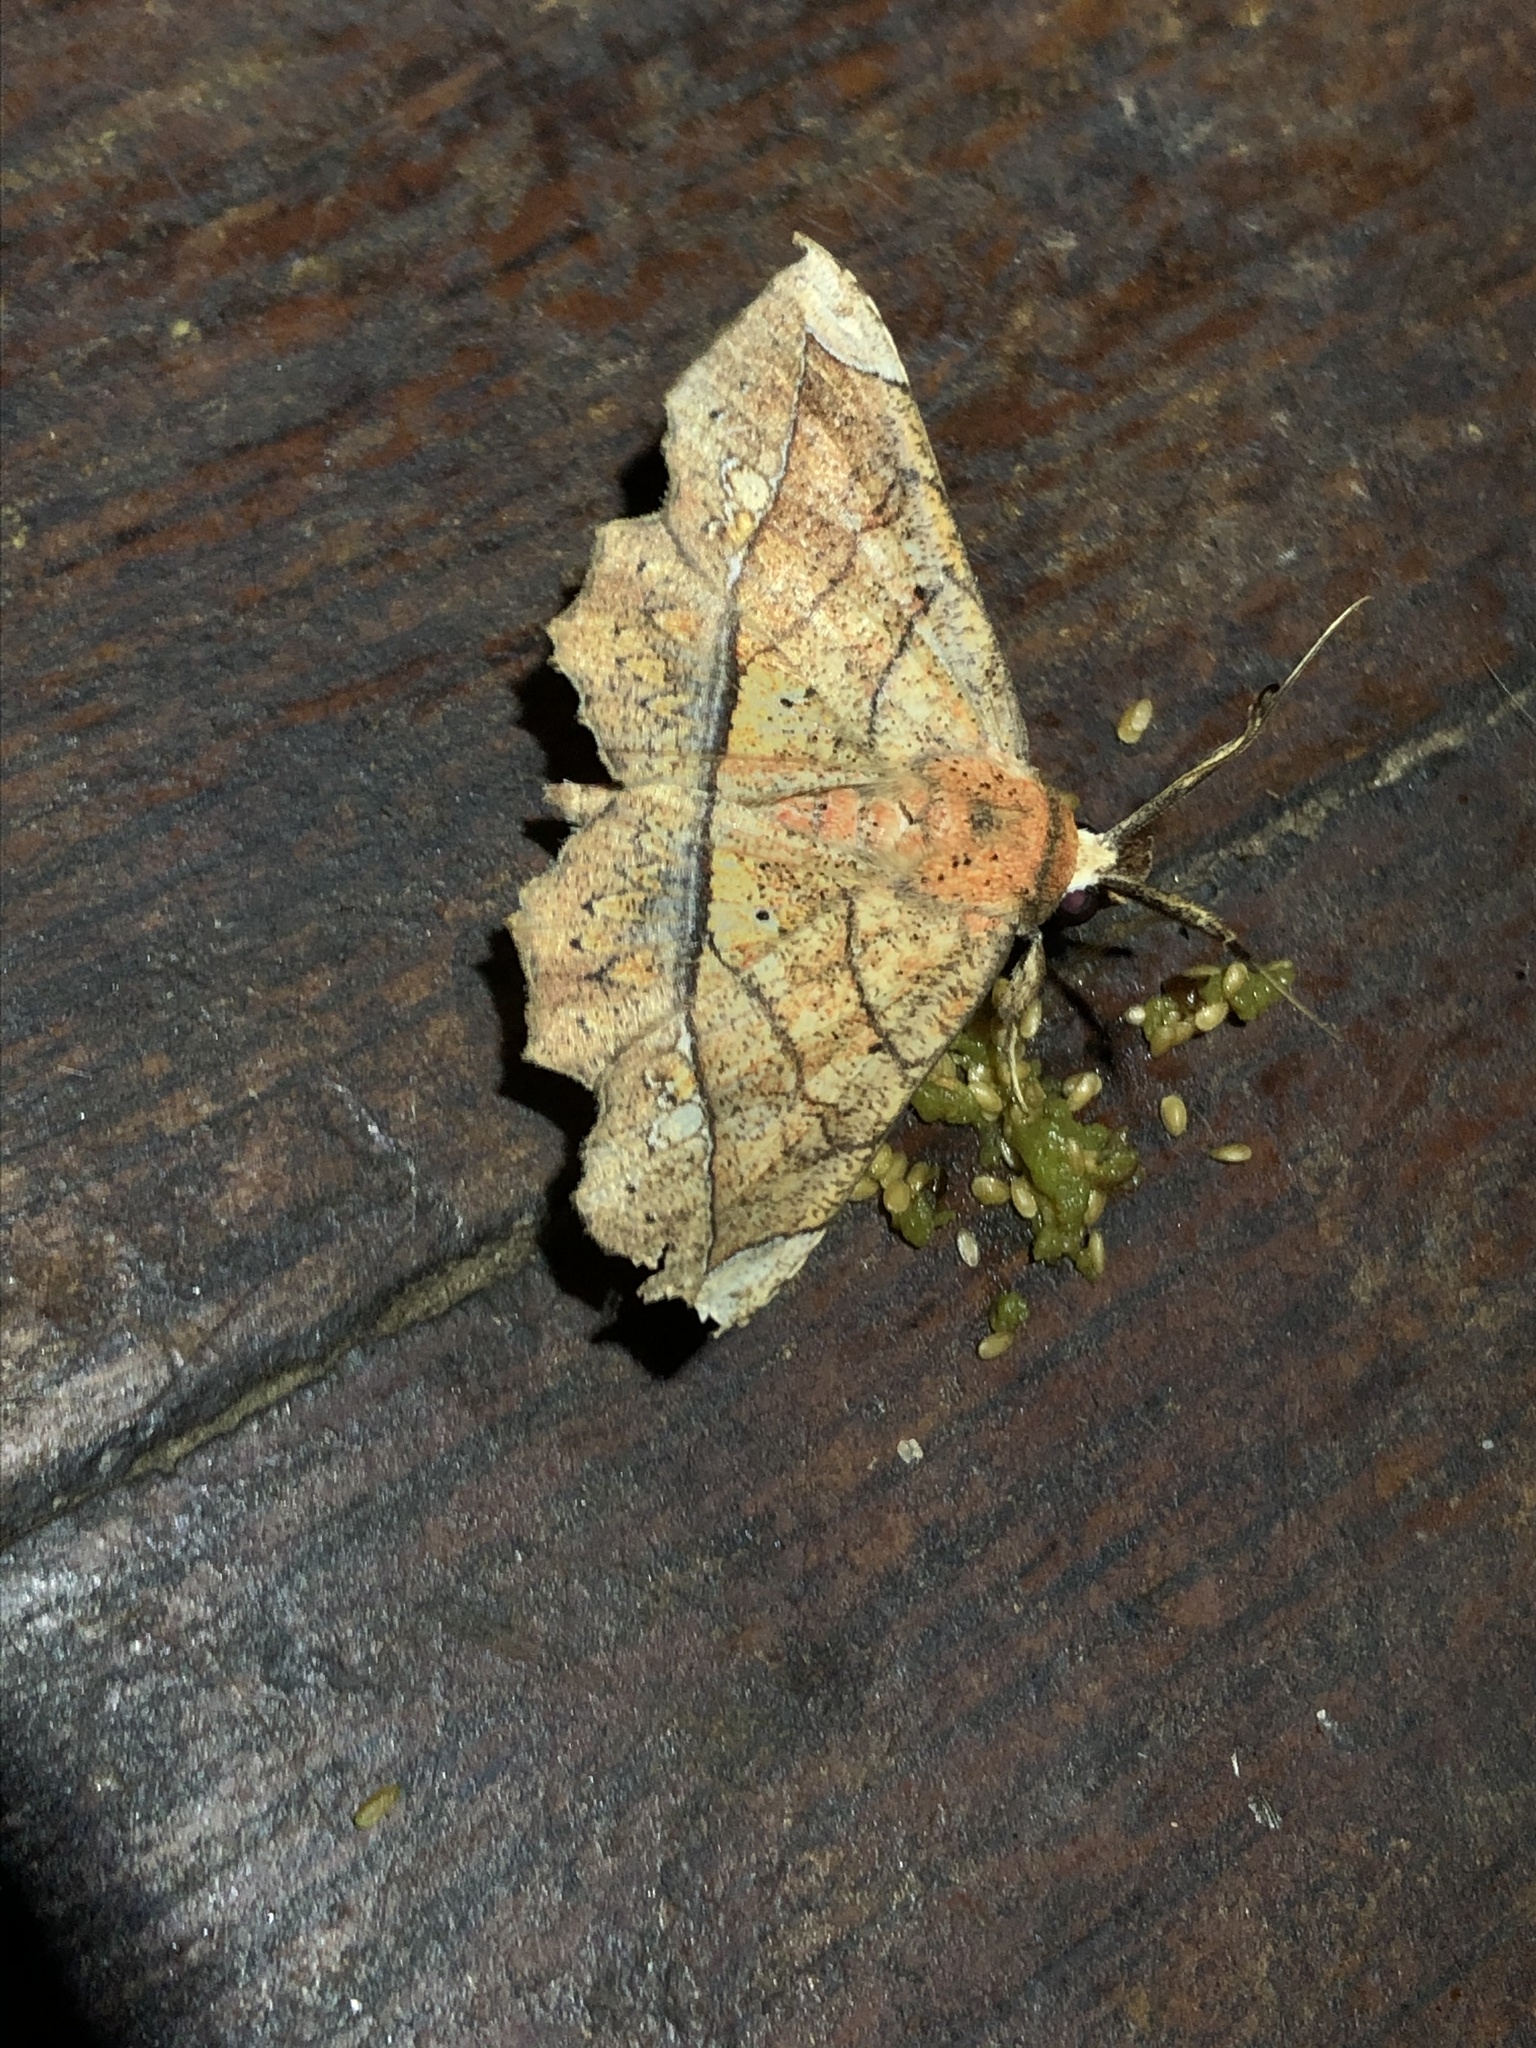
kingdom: Animalia
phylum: Arthropoda
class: Insecta
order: Lepidoptera
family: Erebidae
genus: Syllectra
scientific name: Syllectra erycata
